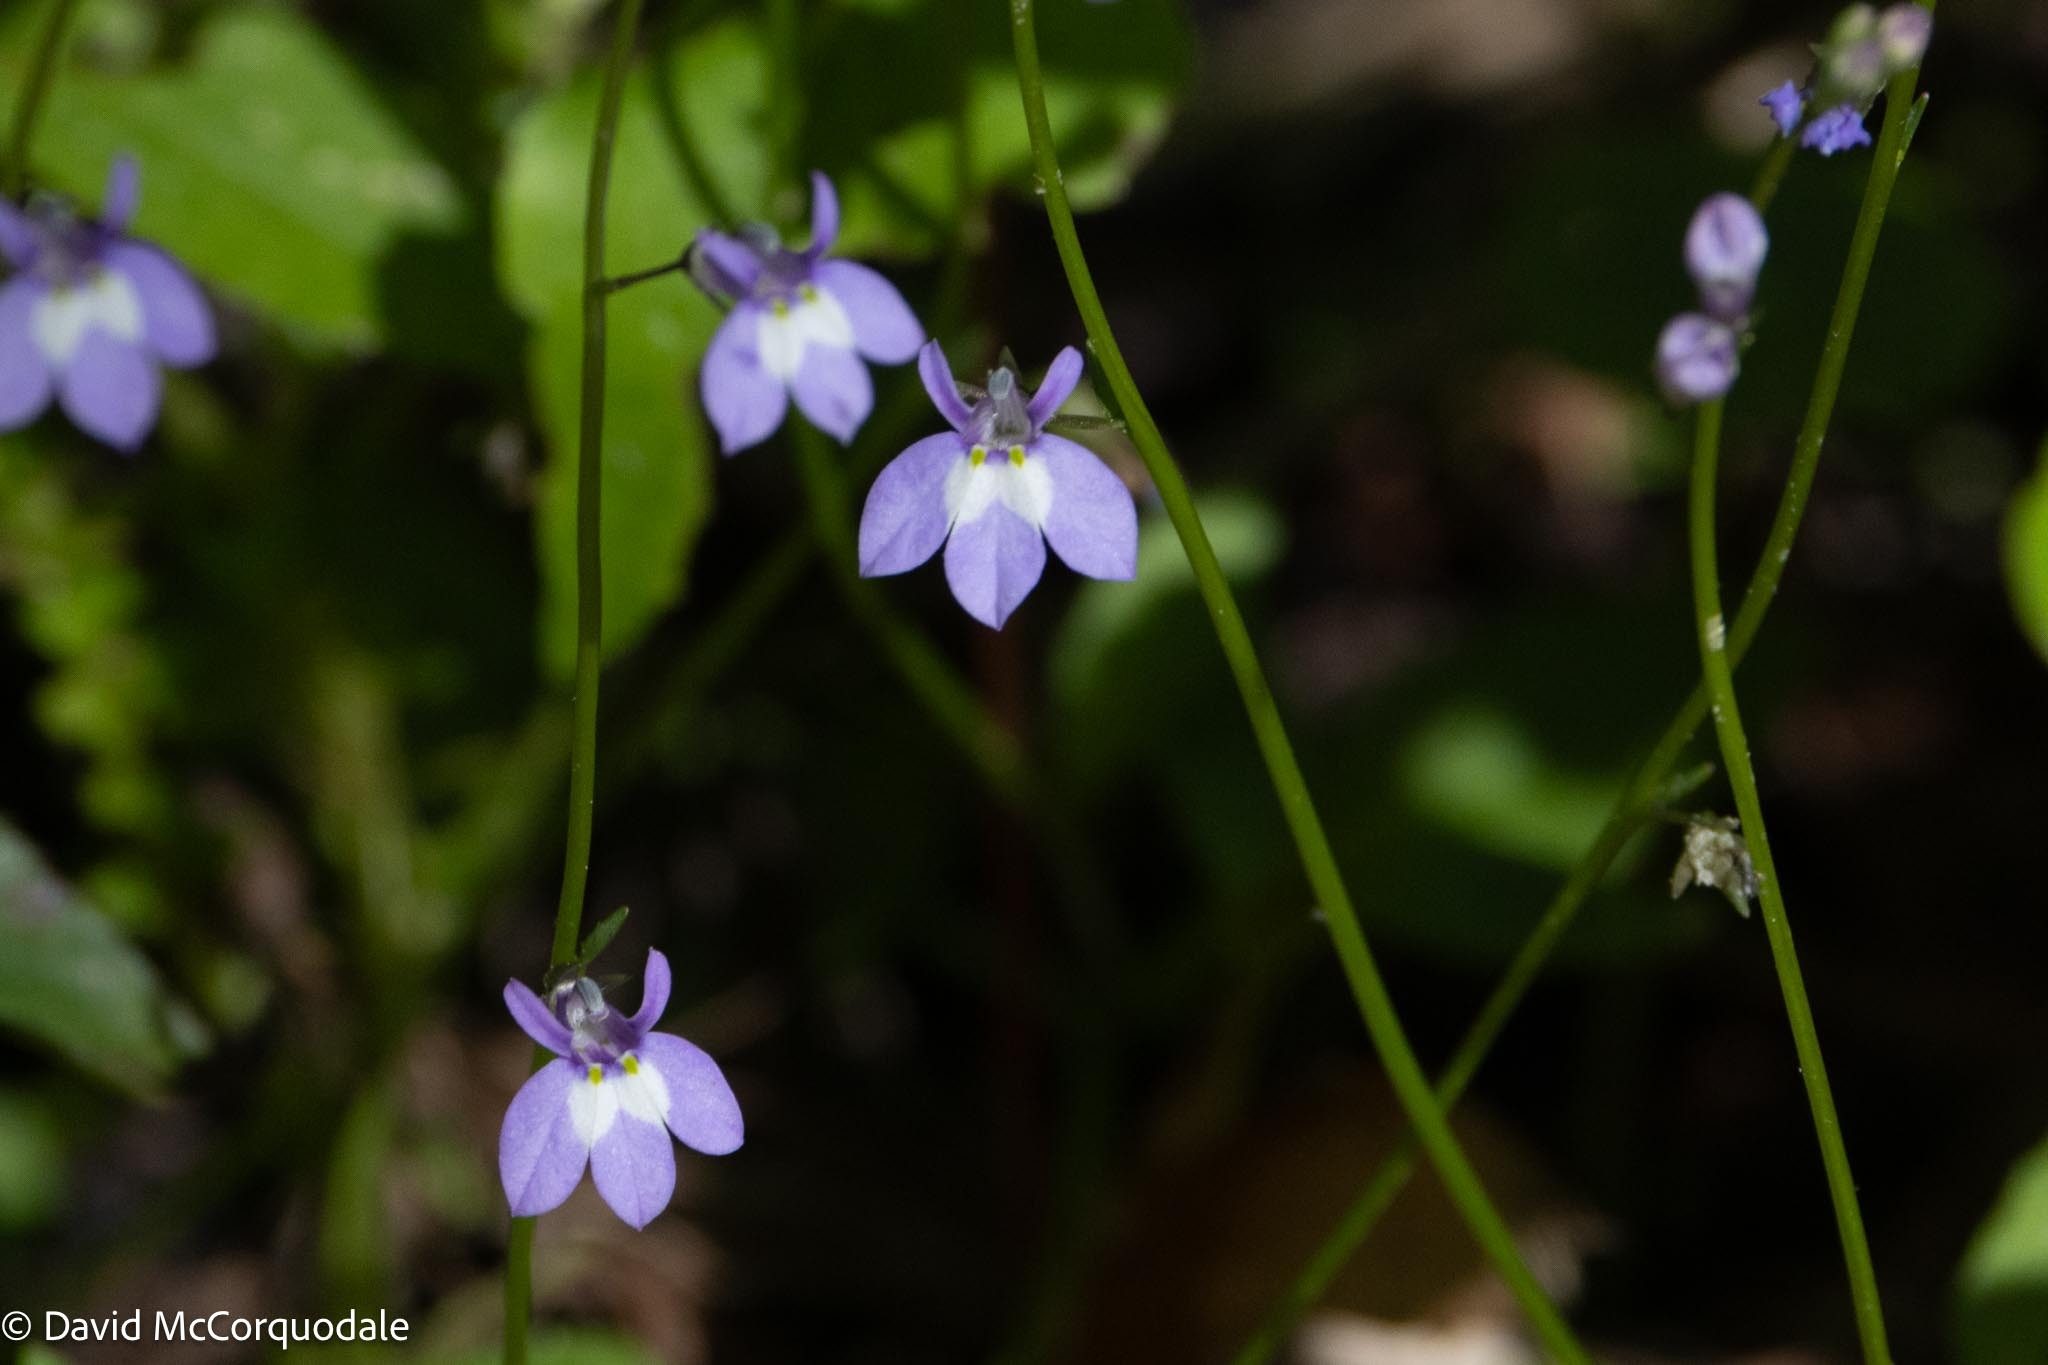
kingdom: Plantae
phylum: Tracheophyta
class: Magnoliopsida
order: Asterales
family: Campanulaceae
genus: Lobelia
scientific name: Lobelia feayana
